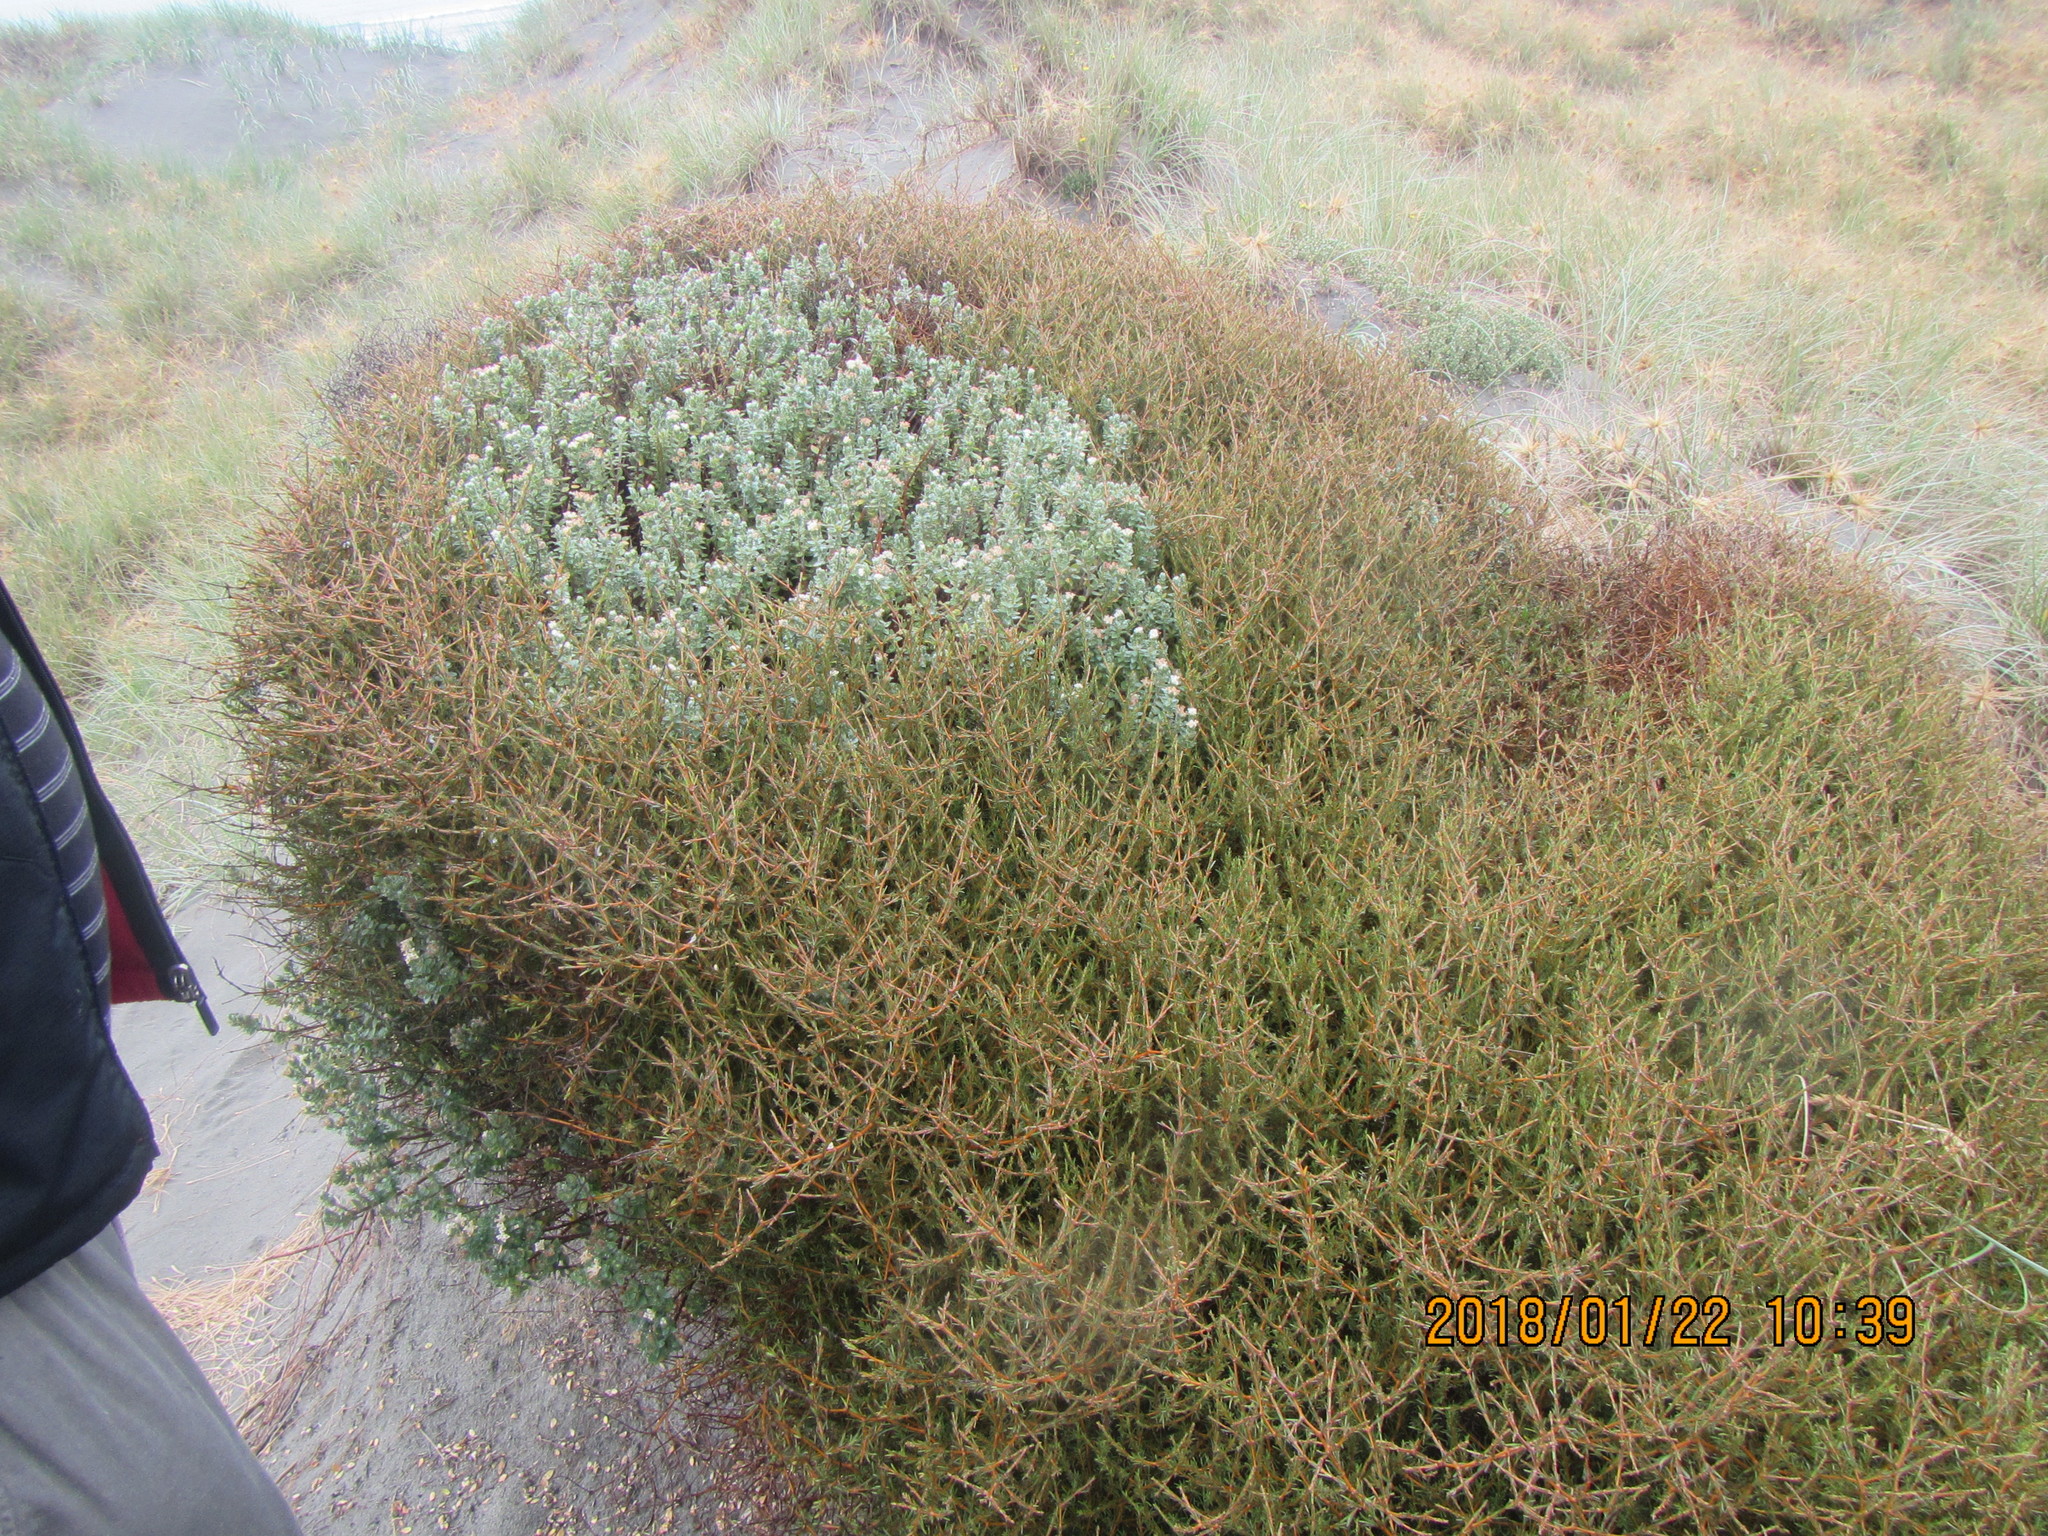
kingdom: Plantae
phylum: Tracheophyta
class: Magnoliopsida
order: Gentianales
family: Rubiaceae
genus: Coprosma
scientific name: Coprosma acerosa
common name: Sand coprosma
